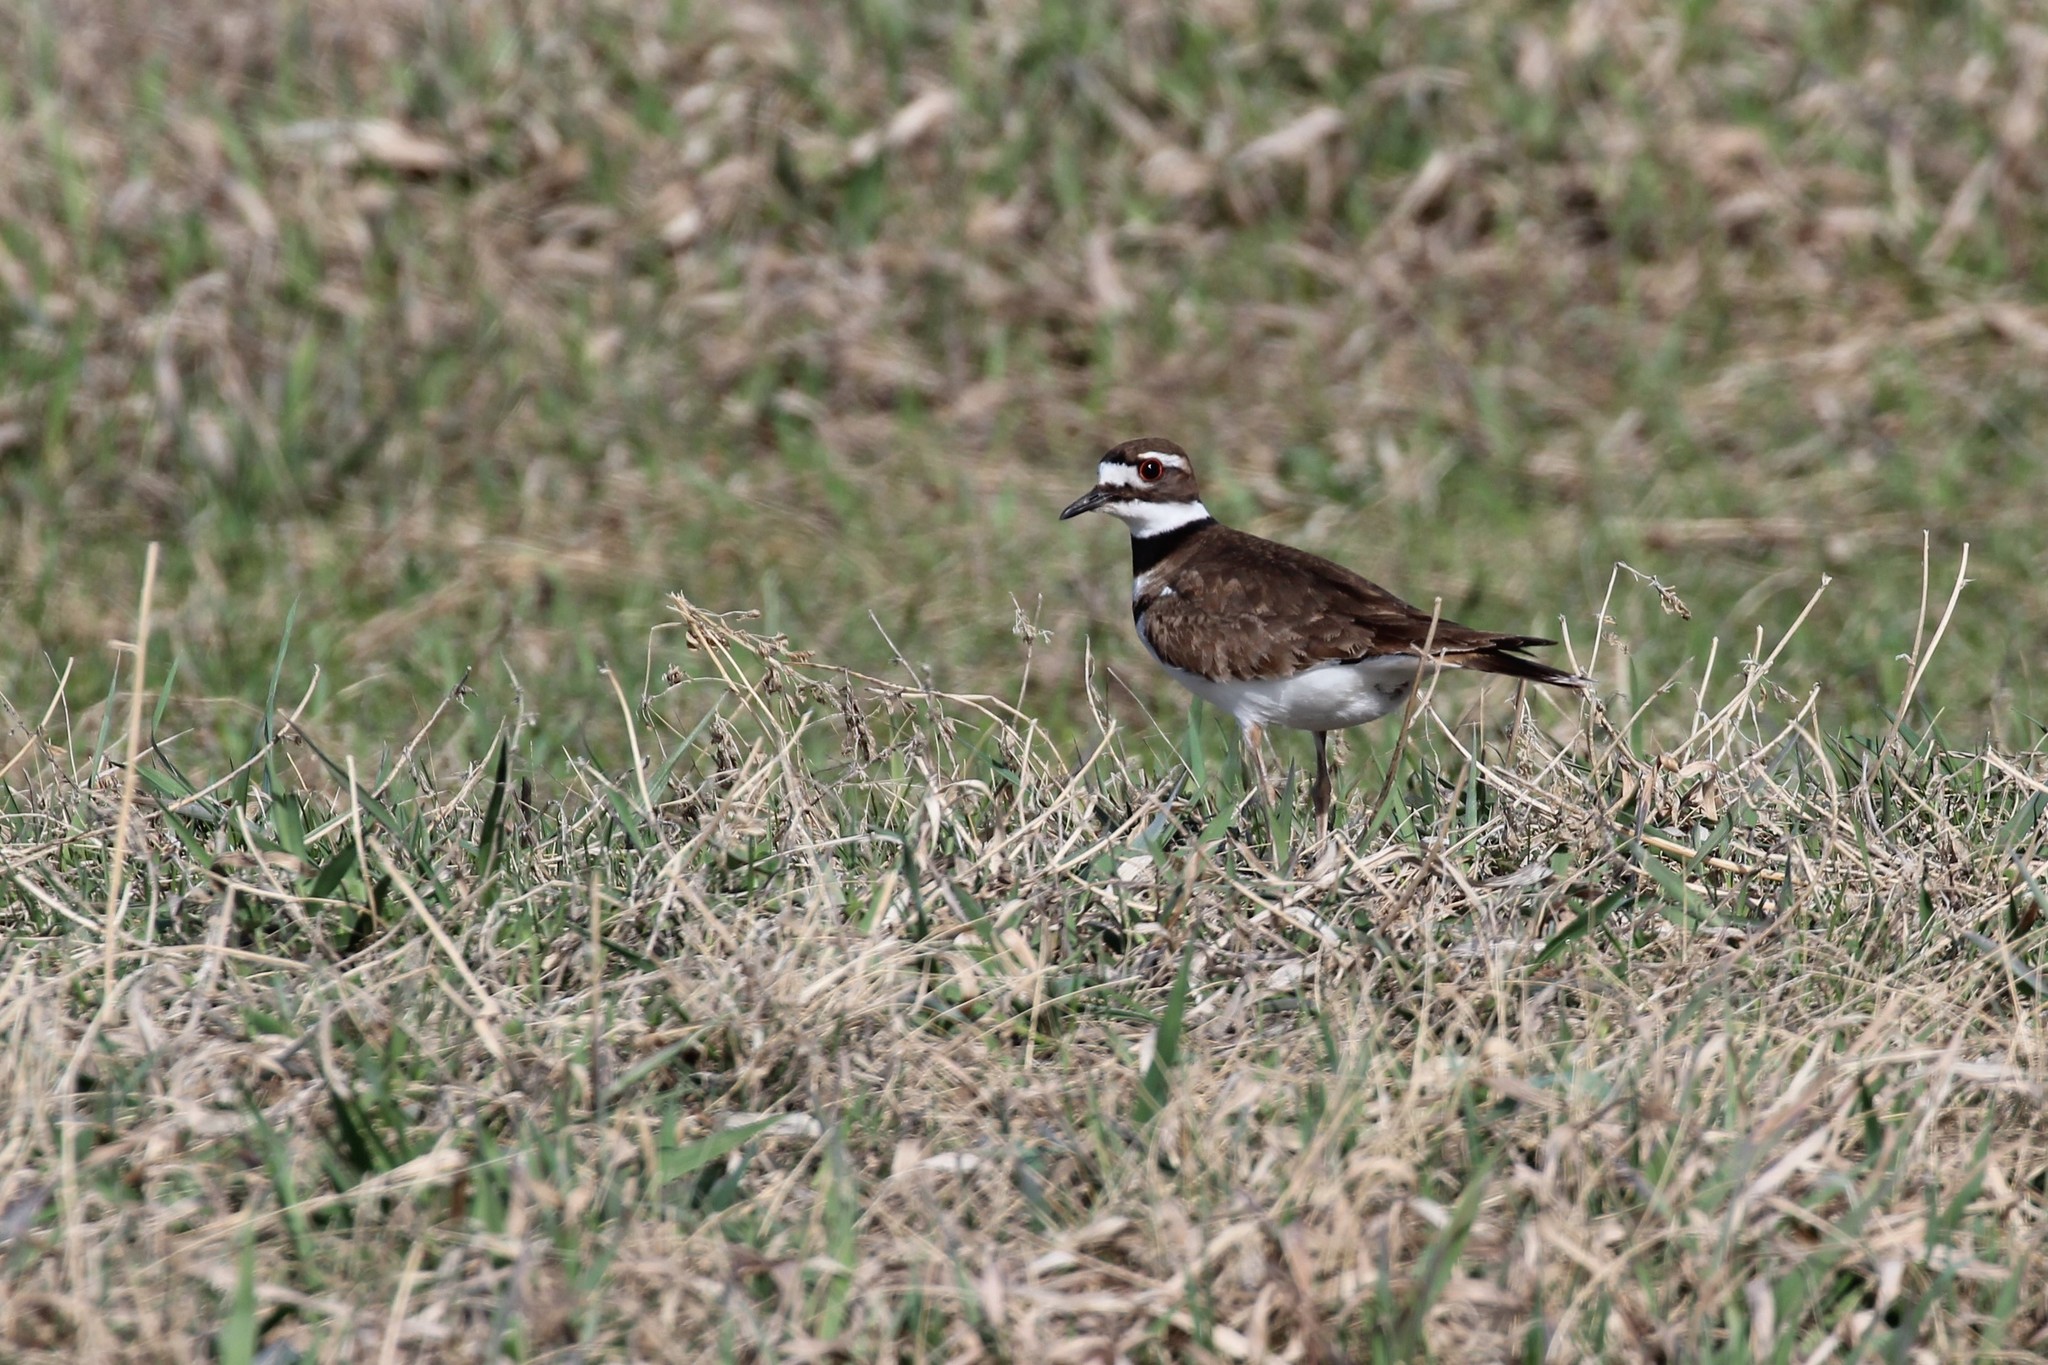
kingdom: Animalia
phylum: Chordata
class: Aves
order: Charadriiformes
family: Charadriidae
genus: Charadrius
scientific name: Charadrius vociferus
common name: Killdeer
